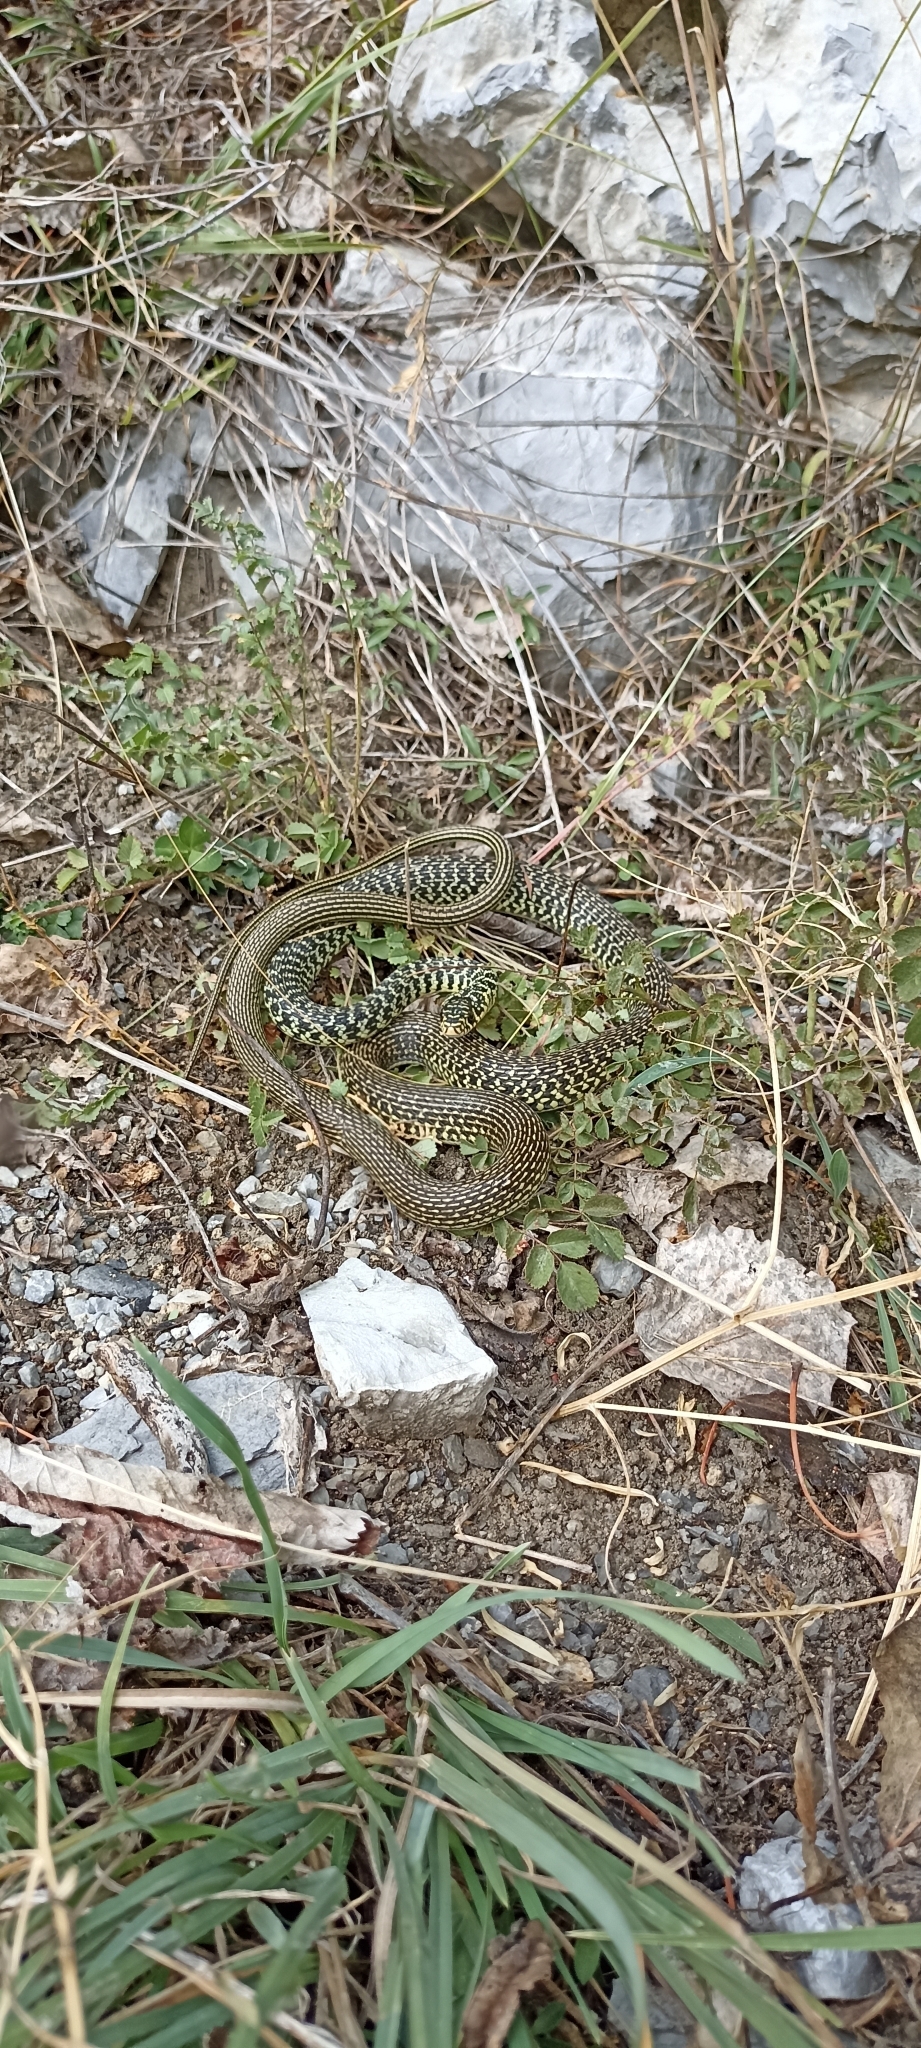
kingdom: Animalia
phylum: Chordata
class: Squamata
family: Colubridae
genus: Hierophis
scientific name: Hierophis viridiflavus
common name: Green whip snake
